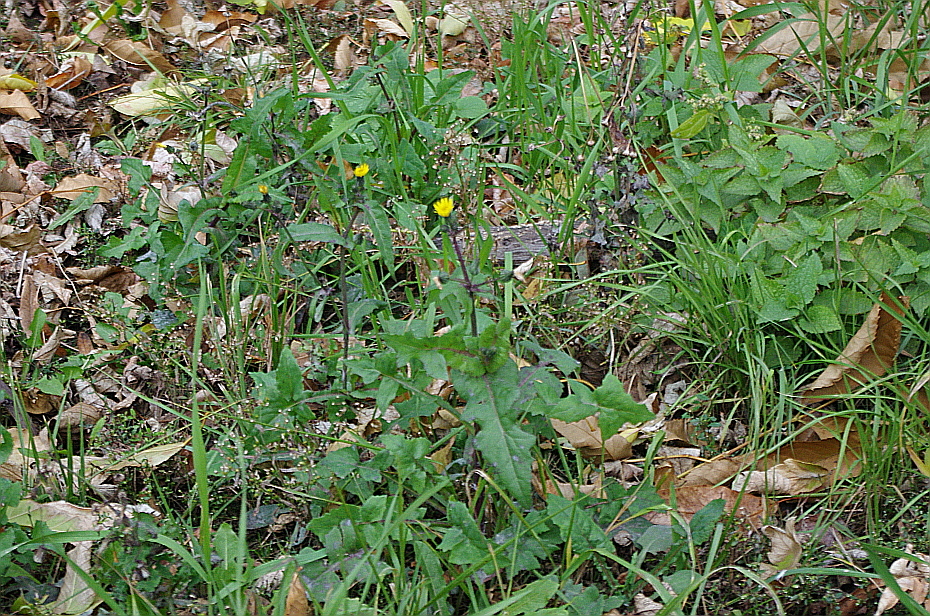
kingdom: Plantae
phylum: Tracheophyta
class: Magnoliopsida
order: Asterales
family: Asteraceae
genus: Sonchus
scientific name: Sonchus oleraceus
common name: Common sowthistle
